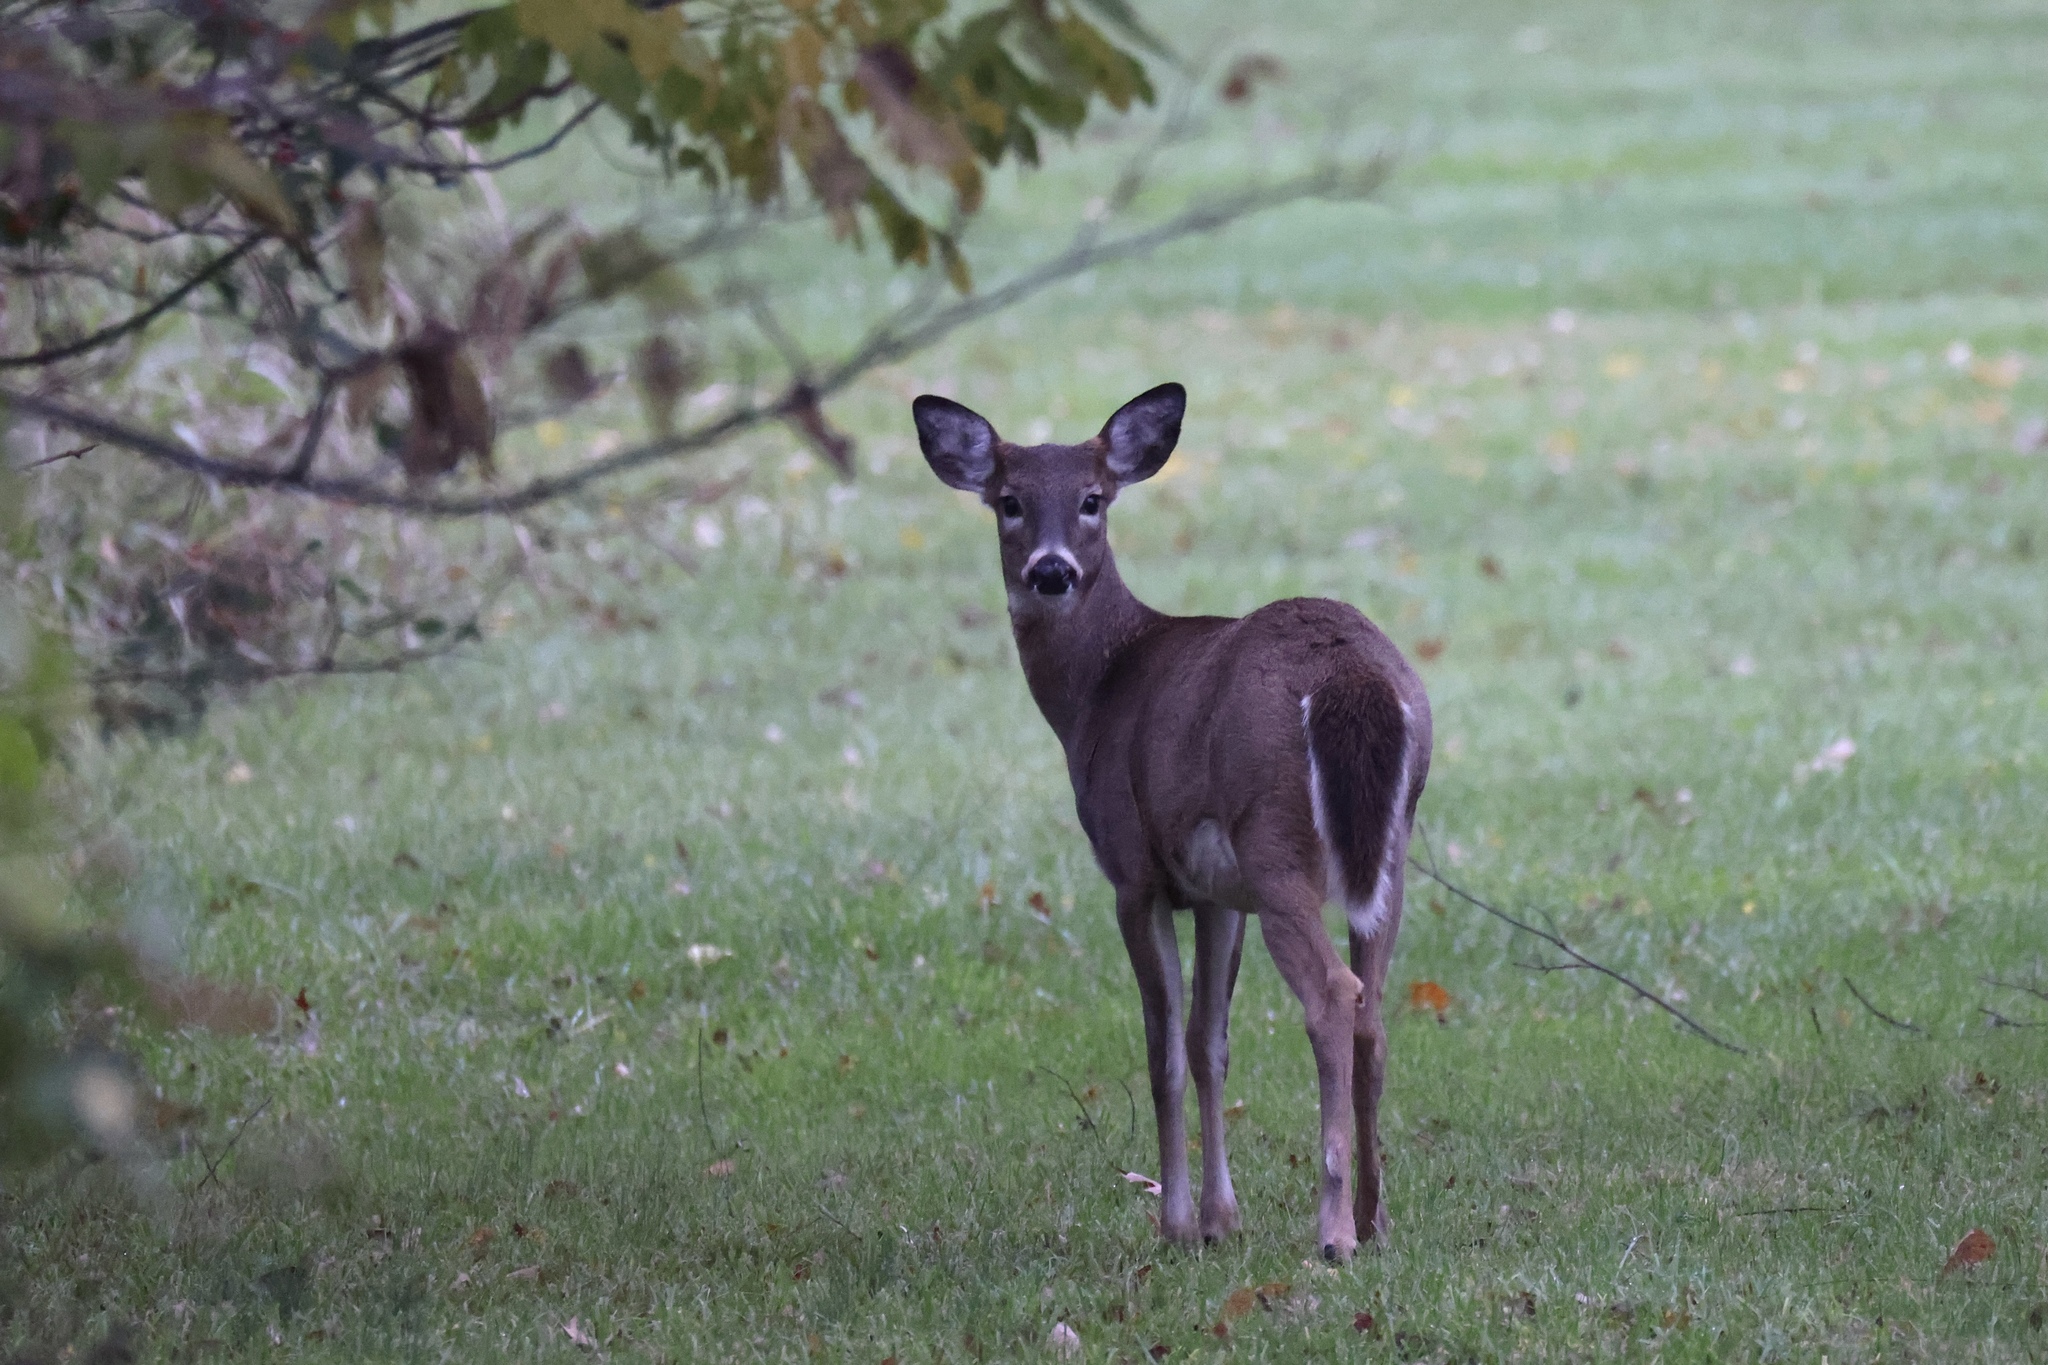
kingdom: Animalia
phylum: Chordata
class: Mammalia
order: Artiodactyla
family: Cervidae
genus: Odocoileus
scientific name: Odocoileus virginianus
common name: White-tailed deer
